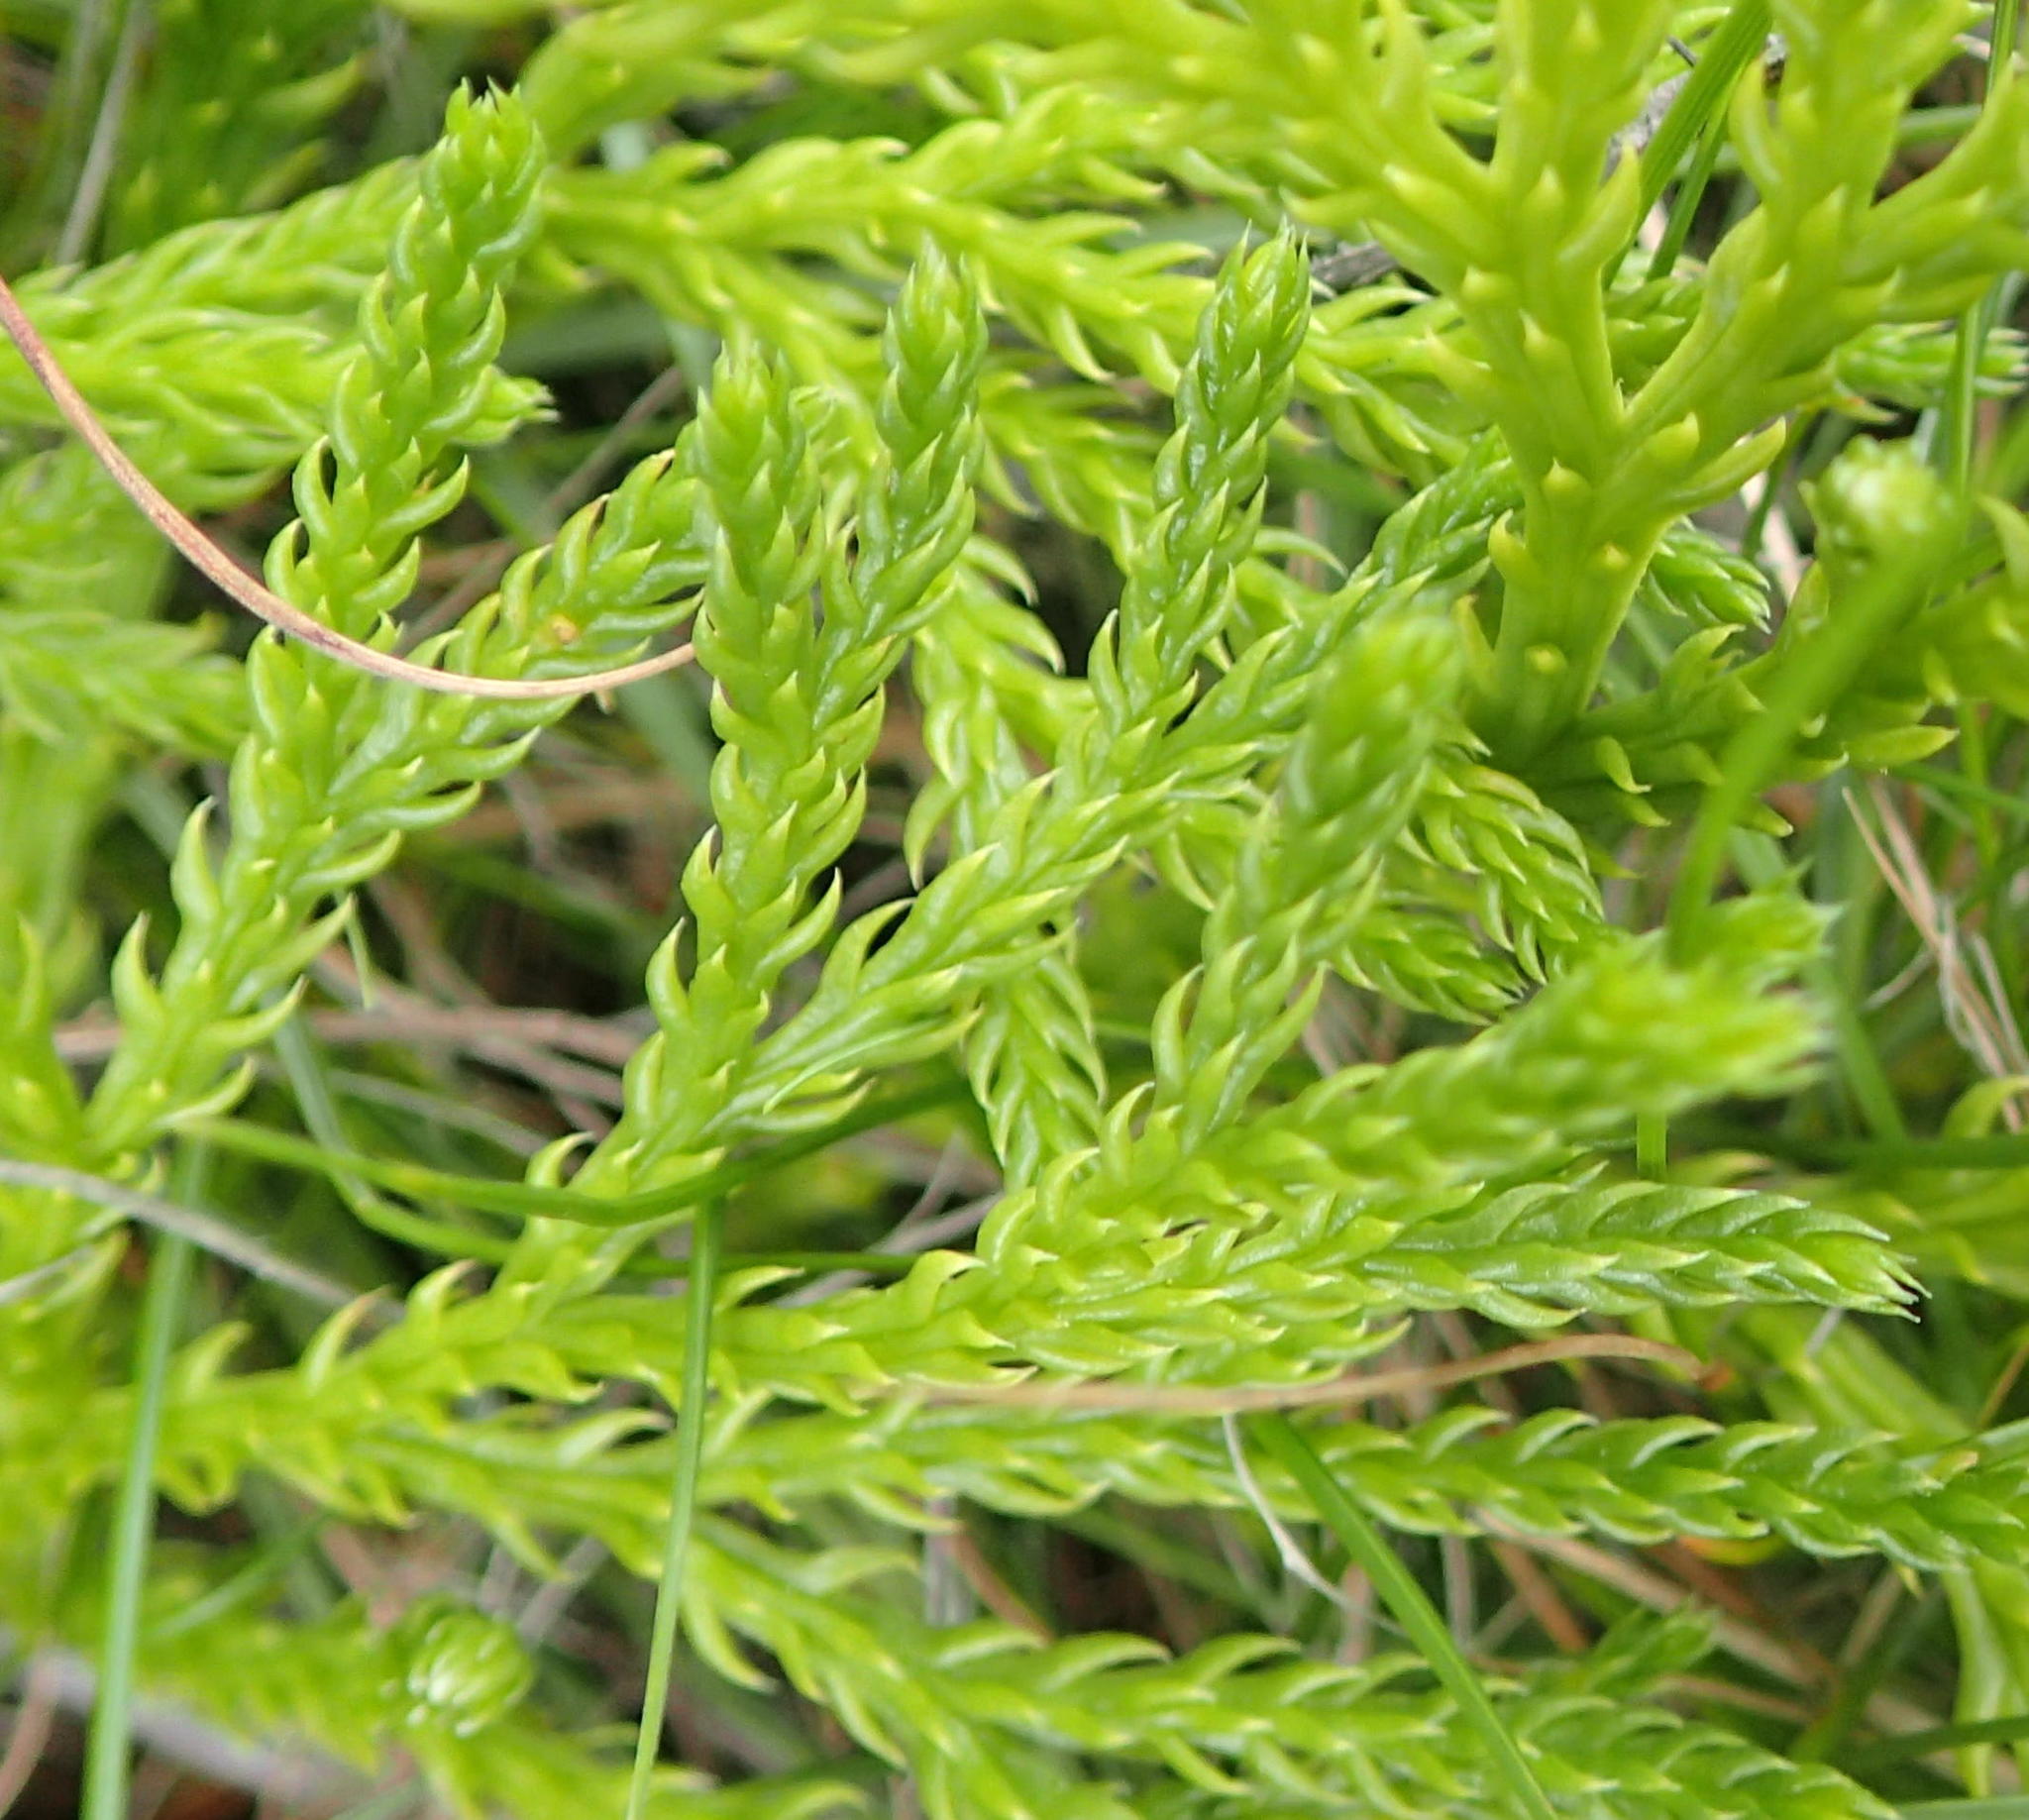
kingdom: Plantae
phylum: Tracheophyta
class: Lycopodiopsida
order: Lycopodiales
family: Lycopodiaceae
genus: Diphasiastrum
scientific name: Diphasiastrum zanclophyllum
